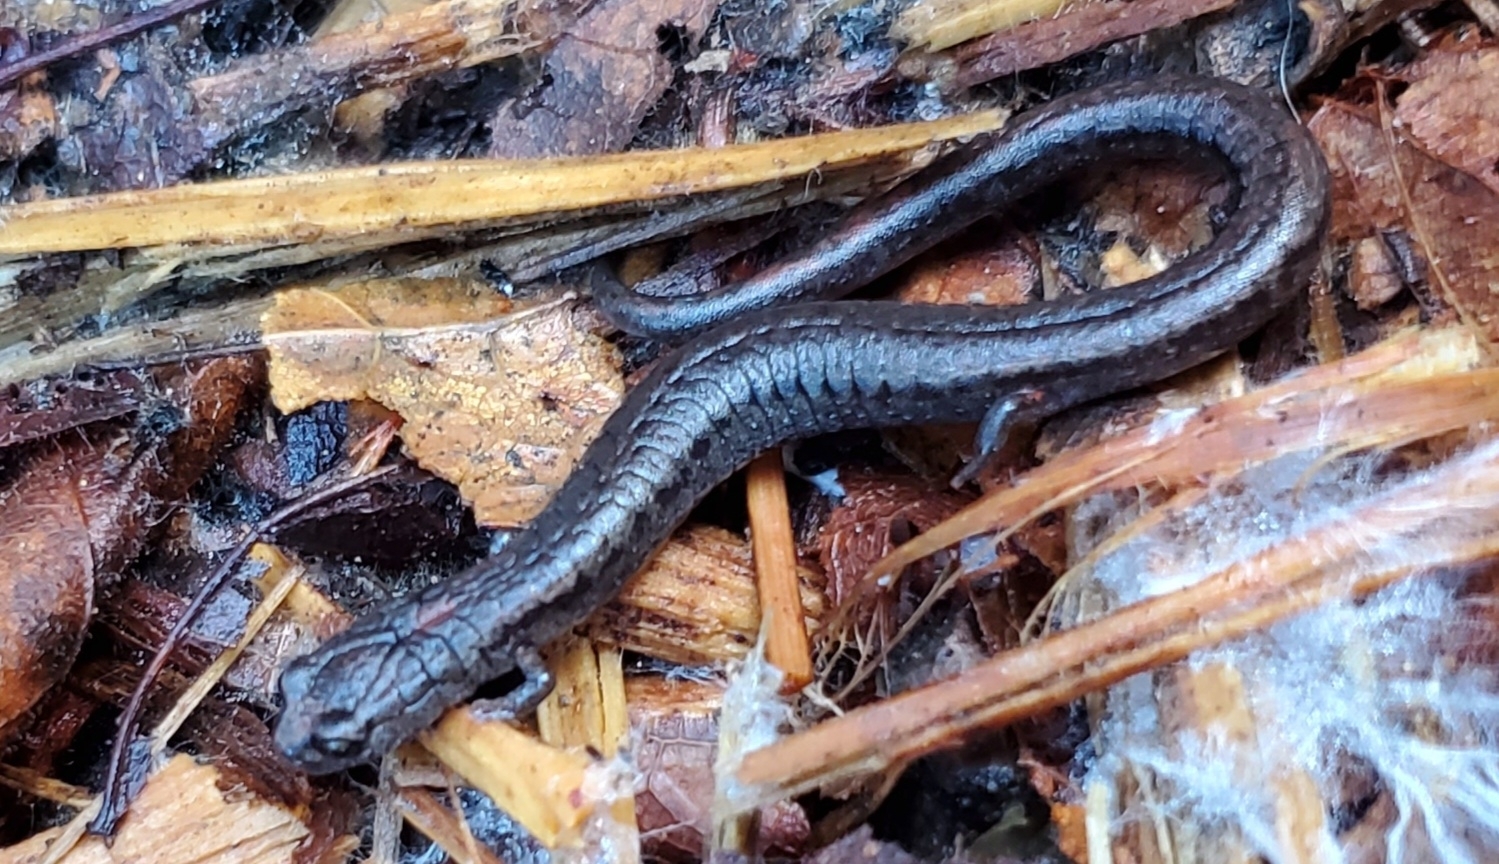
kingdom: Animalia
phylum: Chordata
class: Amphibia
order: Caudata
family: Plethodontidae
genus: Batrachoseps
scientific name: Batrachoseps attenuatus
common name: California slender salamander
